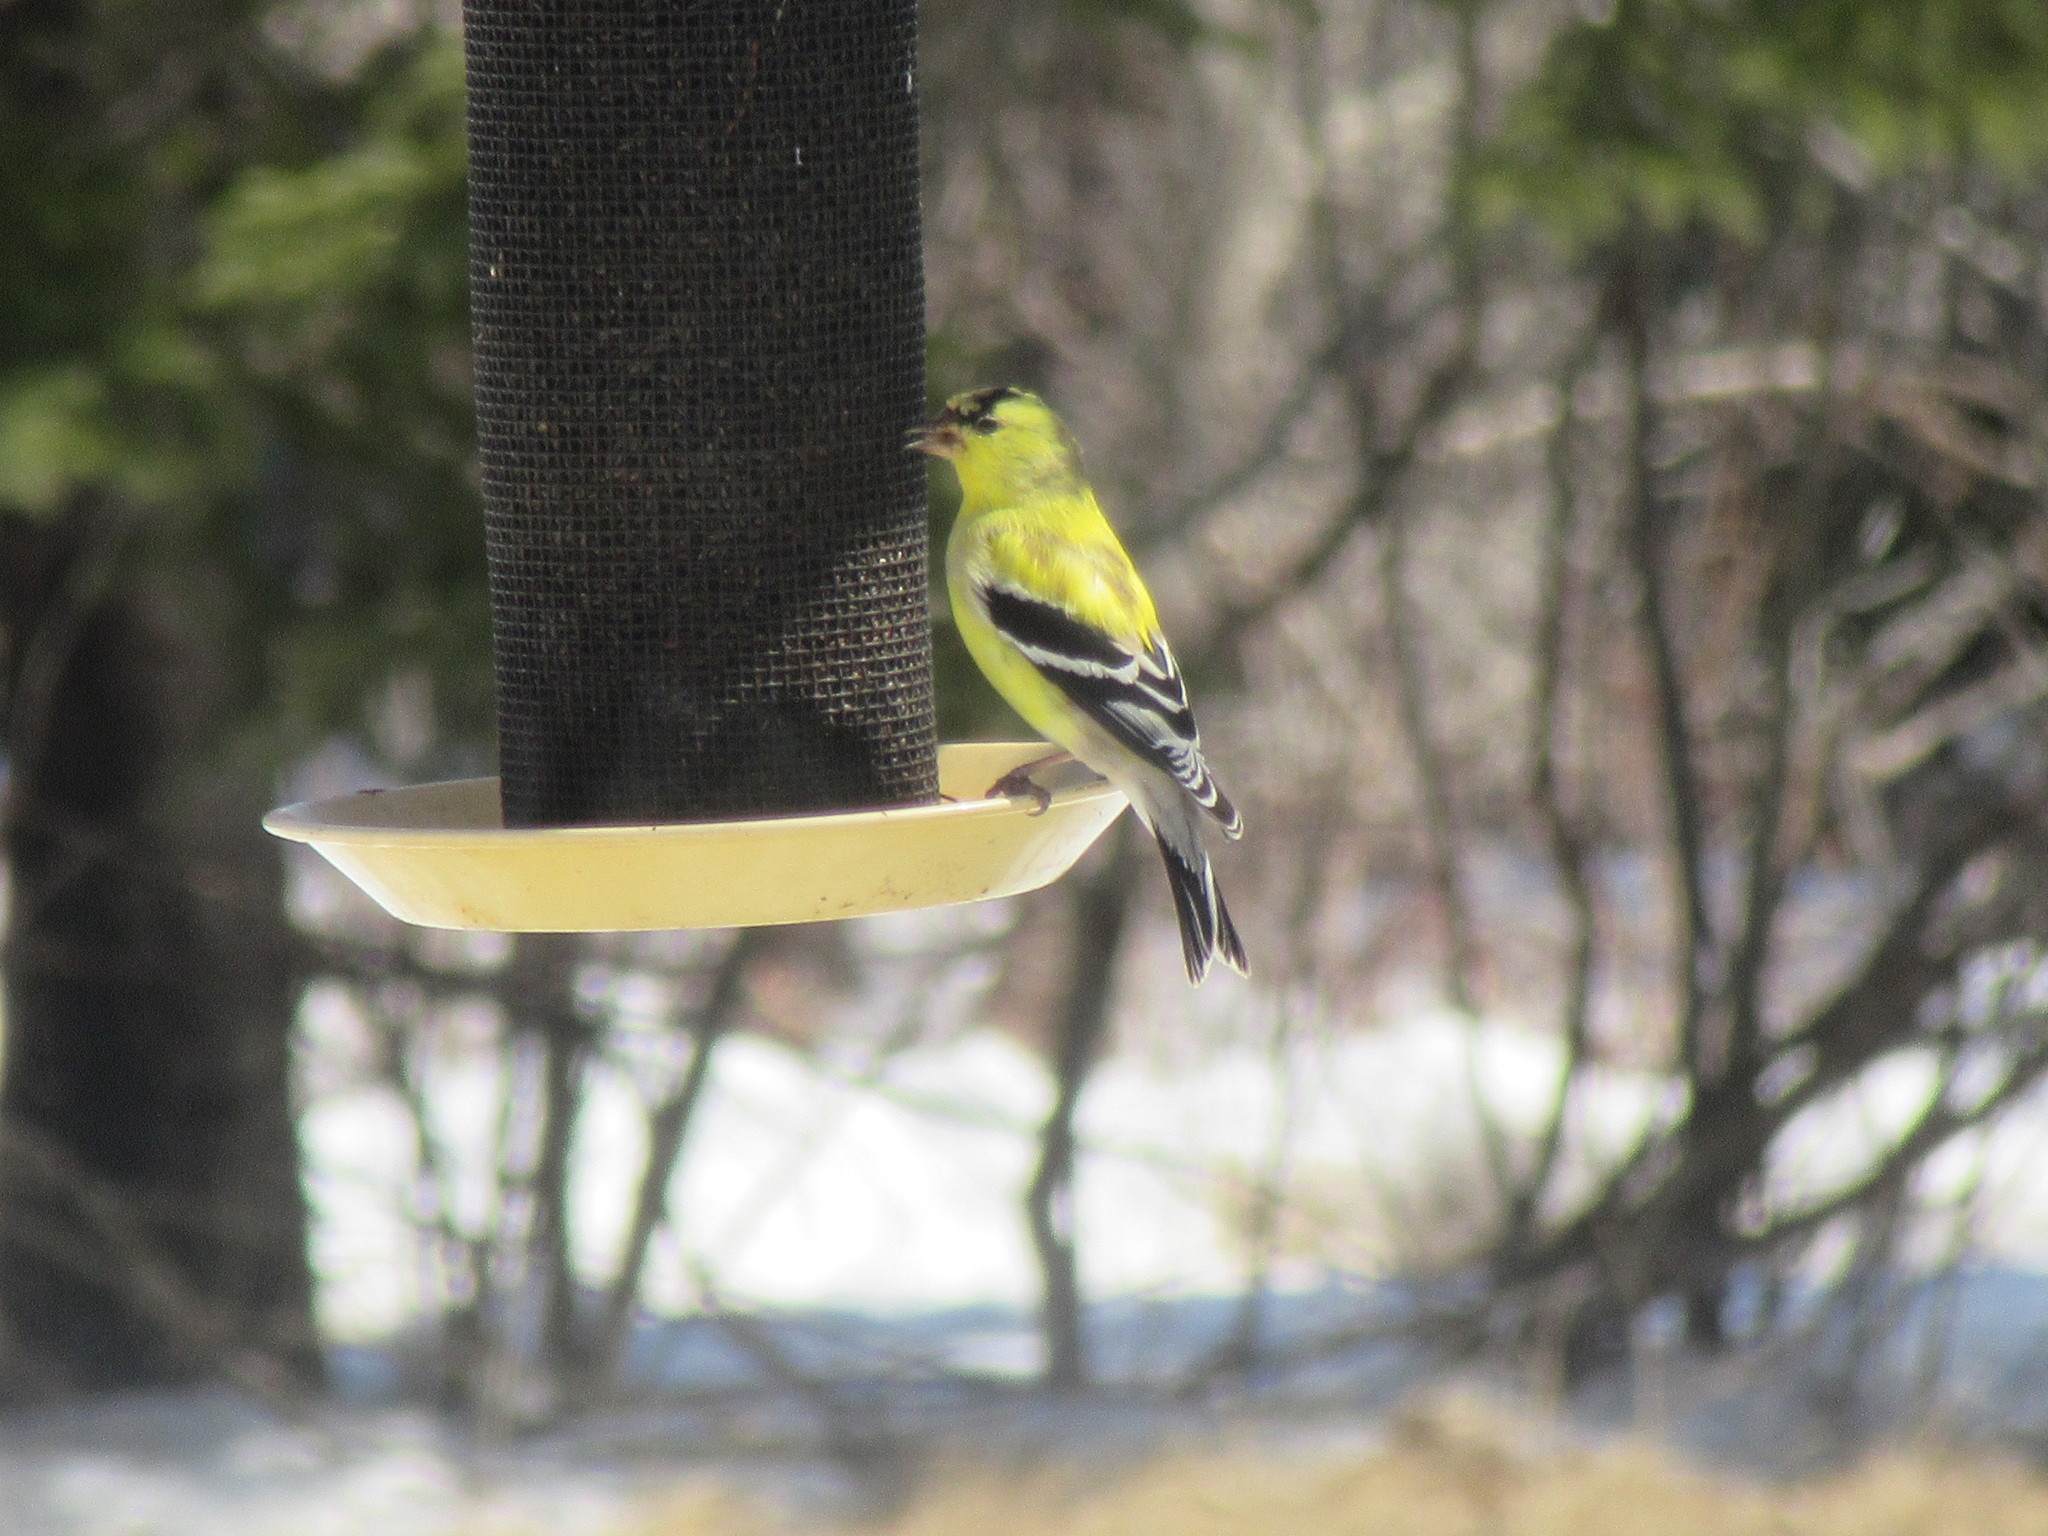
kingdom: Animalia
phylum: Chordata
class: Aves
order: Passeriformes
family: Fringillidae
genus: Spinus
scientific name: Spinus tristis
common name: American goldfinch
